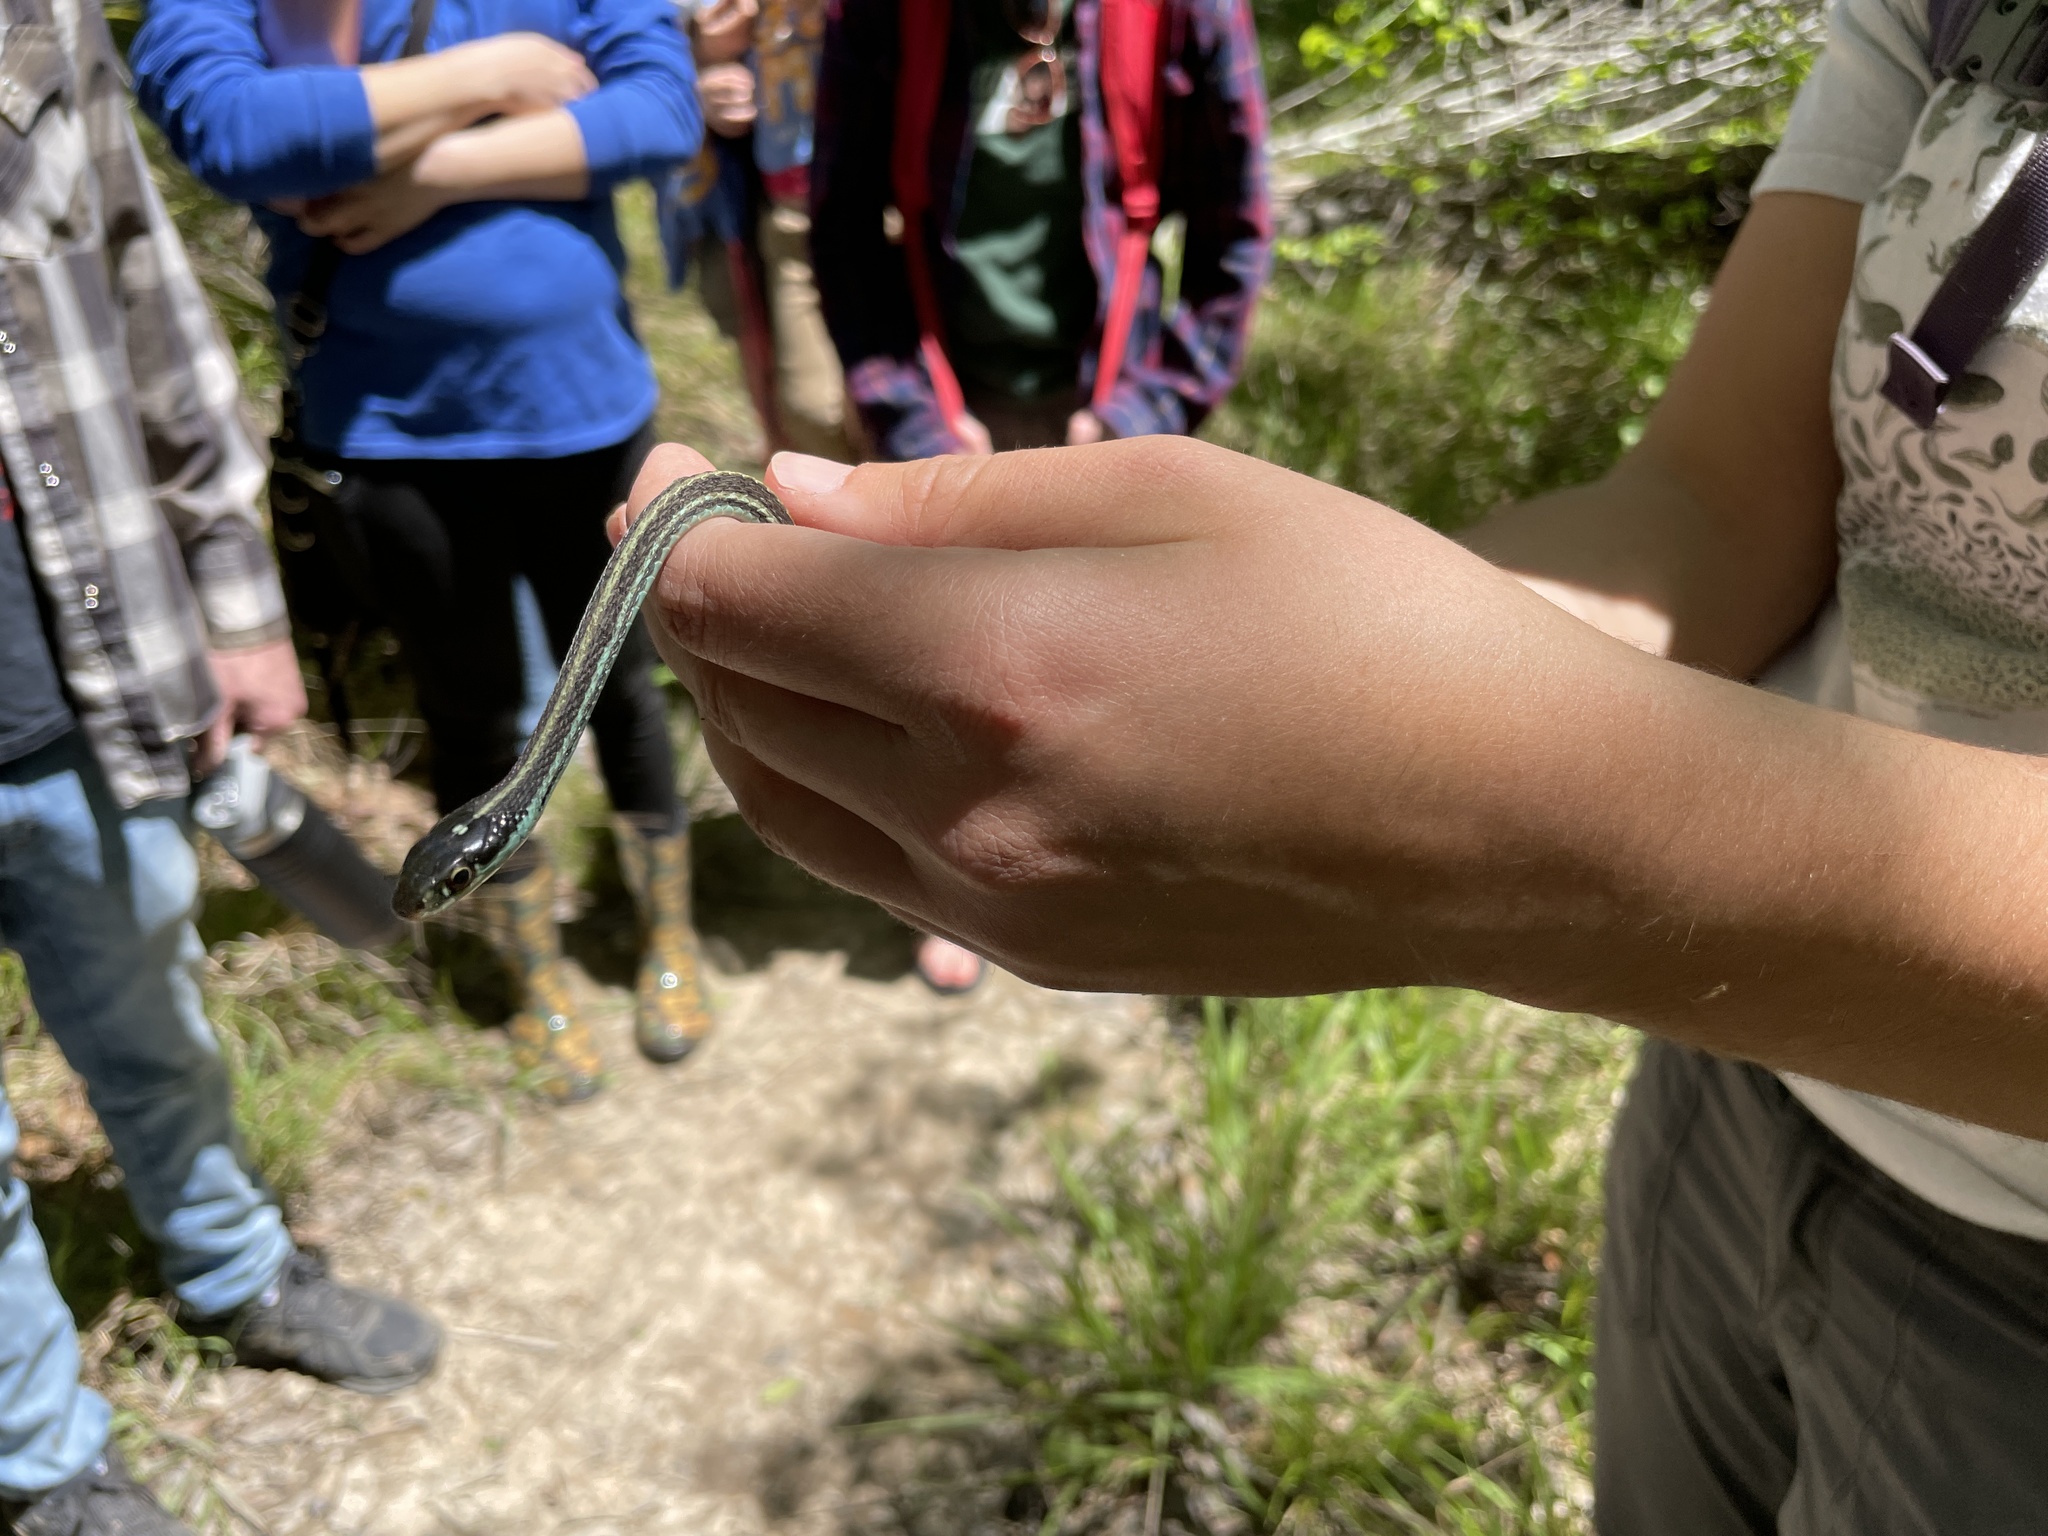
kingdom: Animalia
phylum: Chordata
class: Squamata
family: Colubridae
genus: Thamnophis
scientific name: Thamnophis proximus
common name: Western ribbon snake
